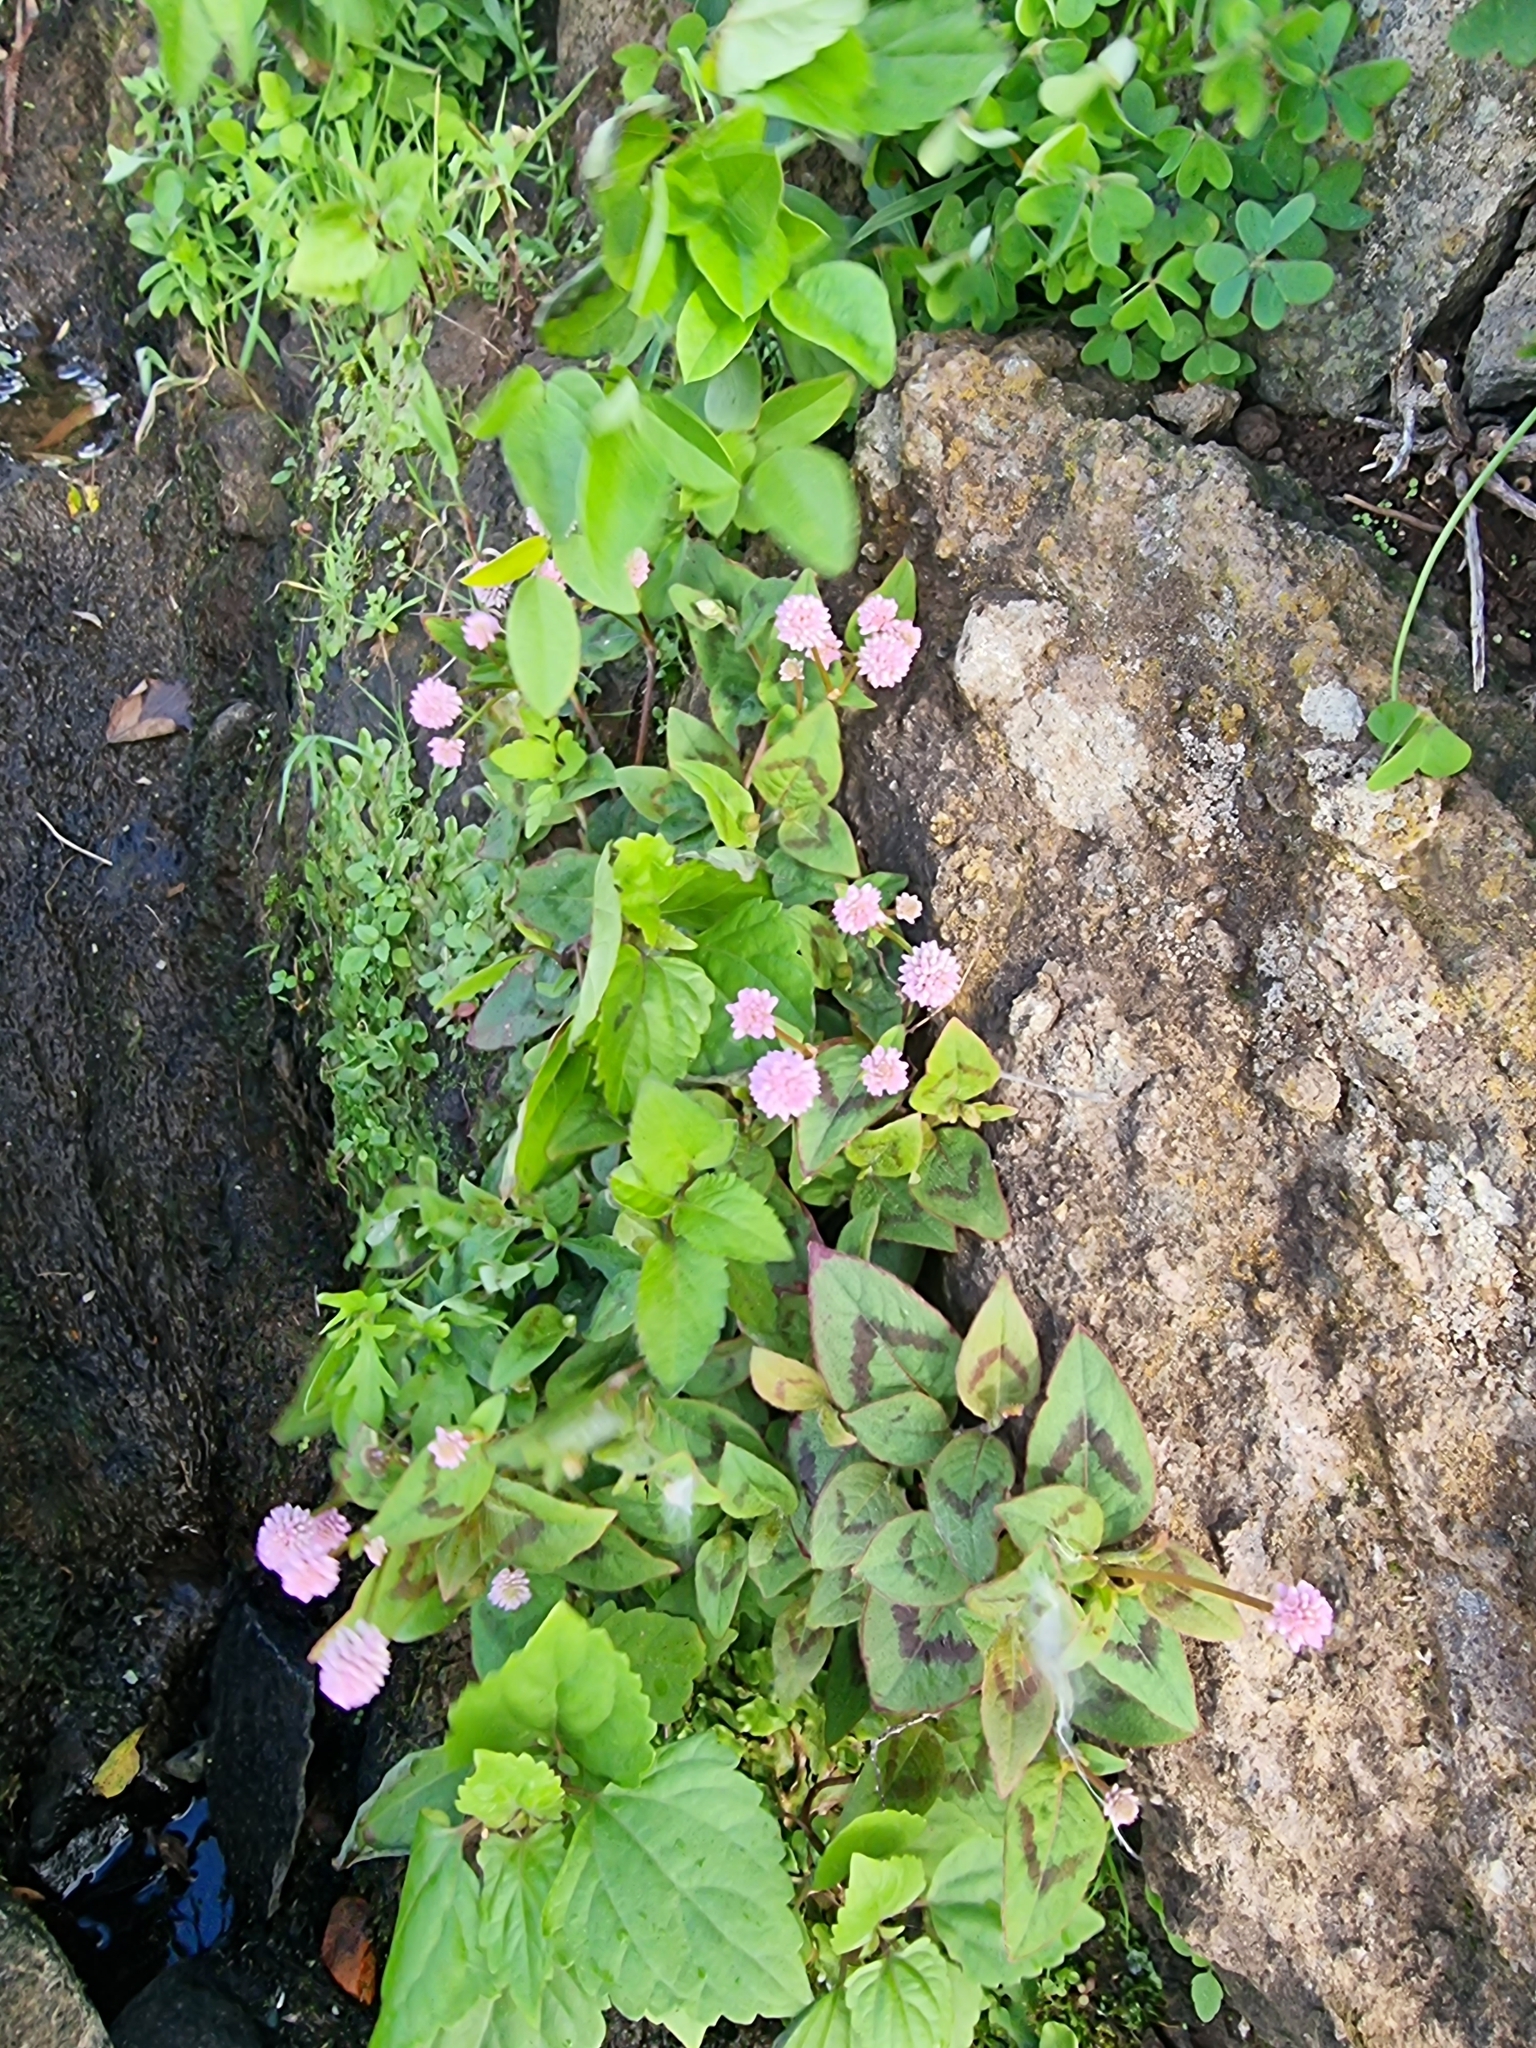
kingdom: Plantae
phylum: Tracheophyta
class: Magnoliopsida
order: Caryophyllales
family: Polygonaceae
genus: Persicaria
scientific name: Persicaria capitata
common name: Pinkhead smartweed
